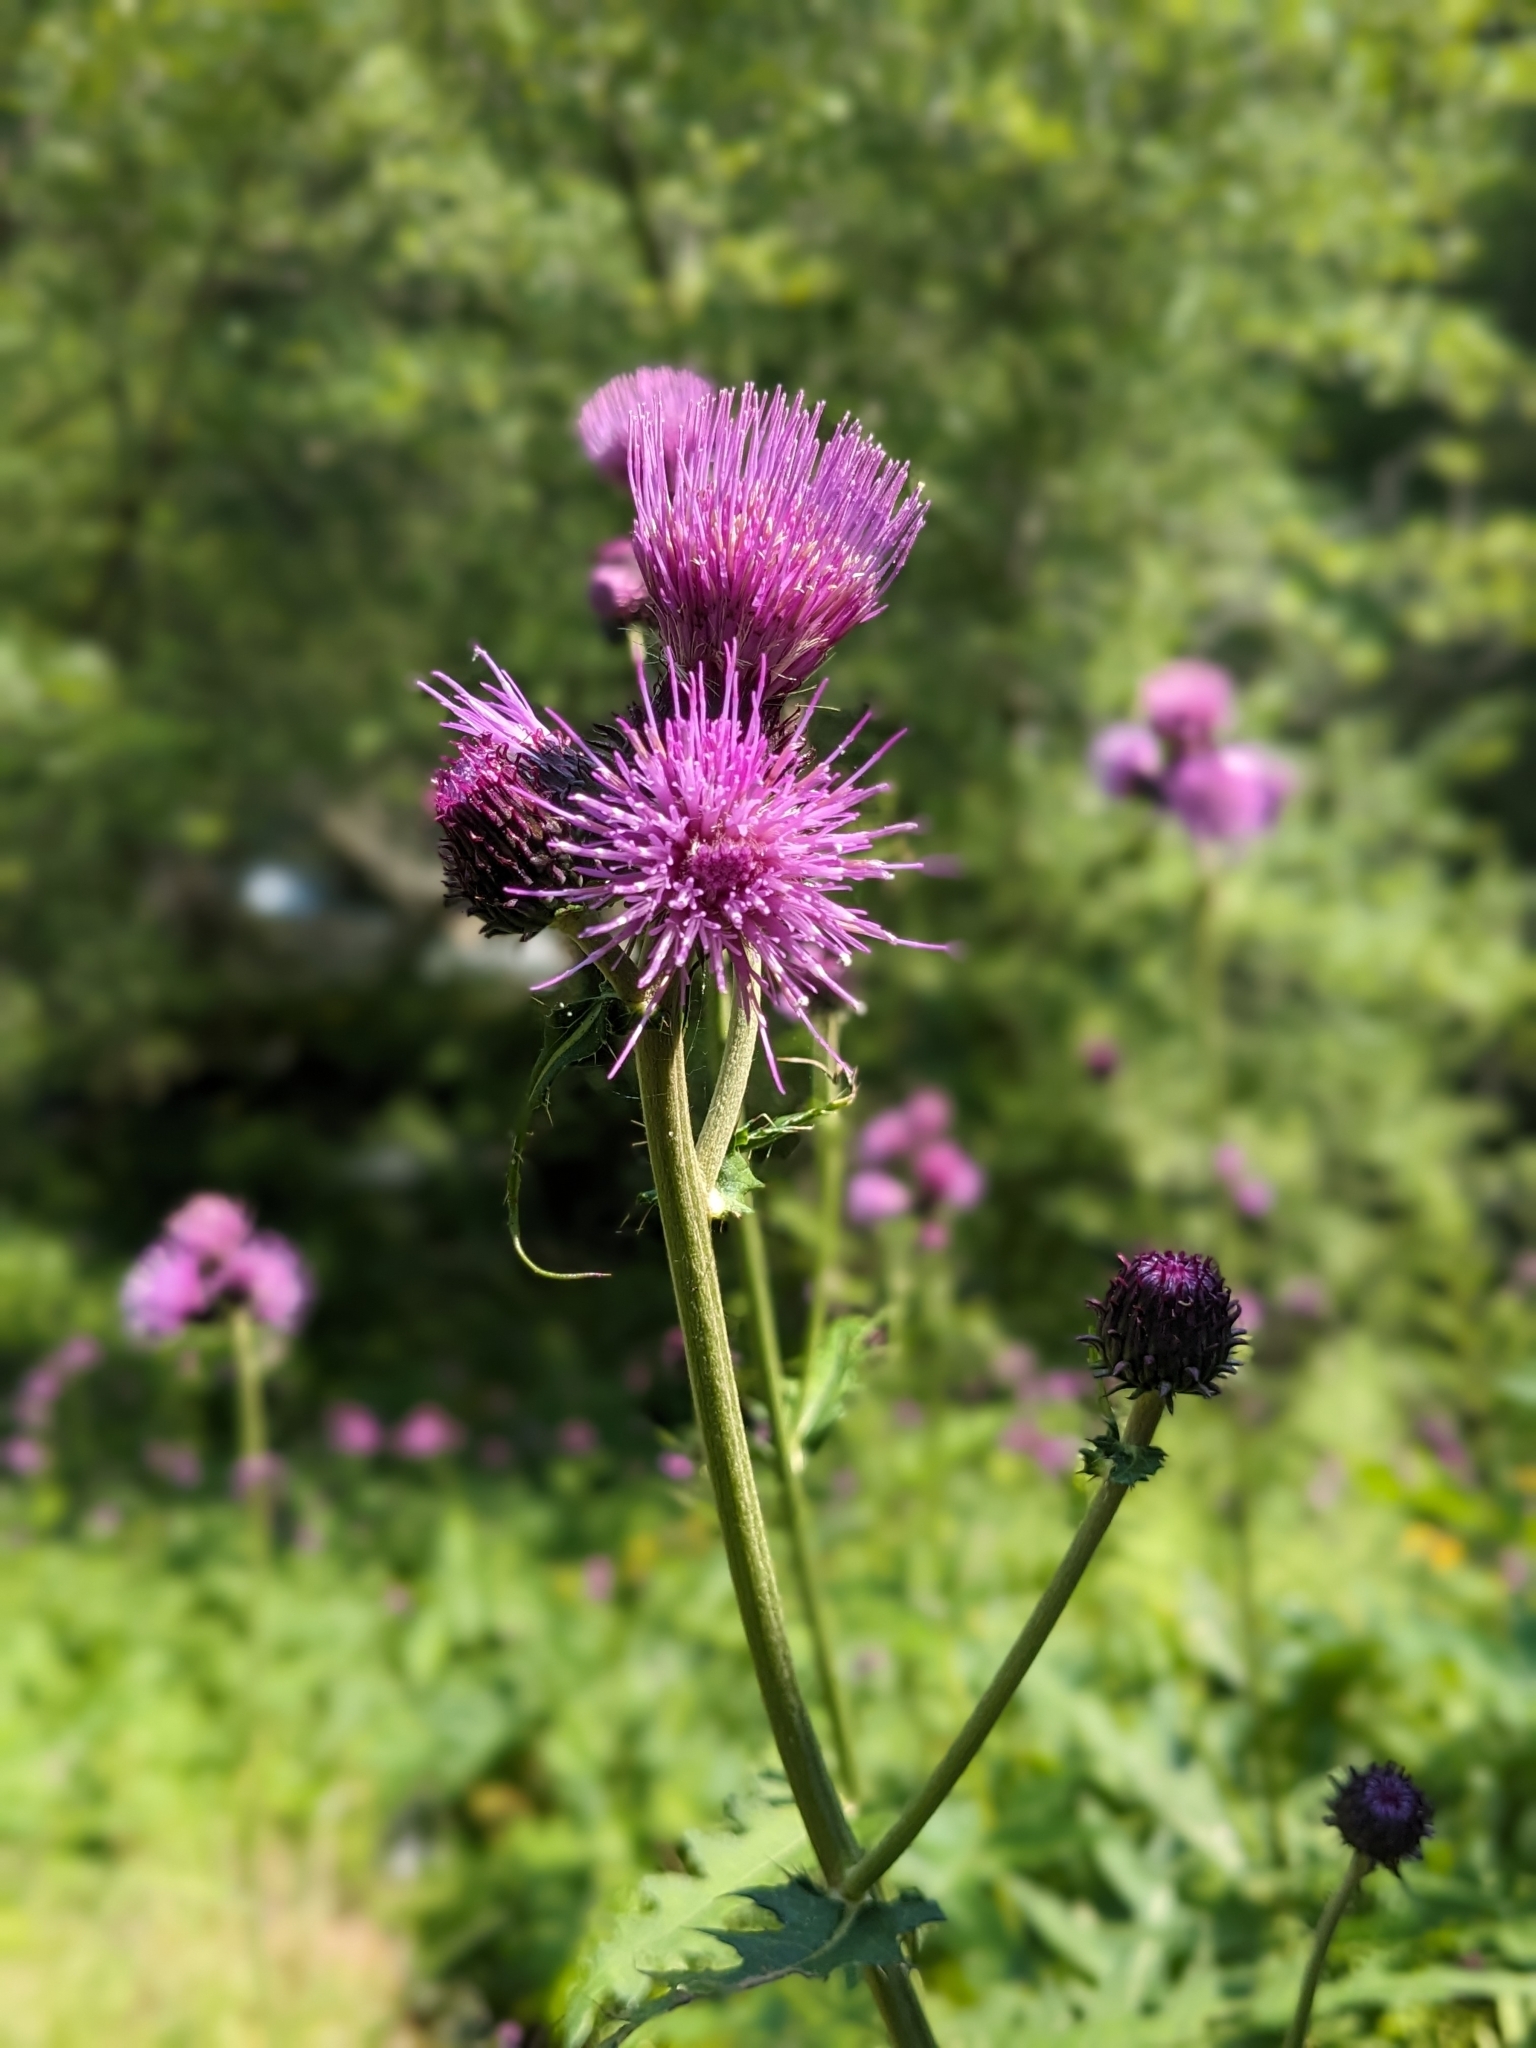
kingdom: Plantae
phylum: Tracheophyta
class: Magnoliopsida
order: Asterales
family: Asteraceae
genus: Cirsium
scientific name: Cirsium alsophilum
